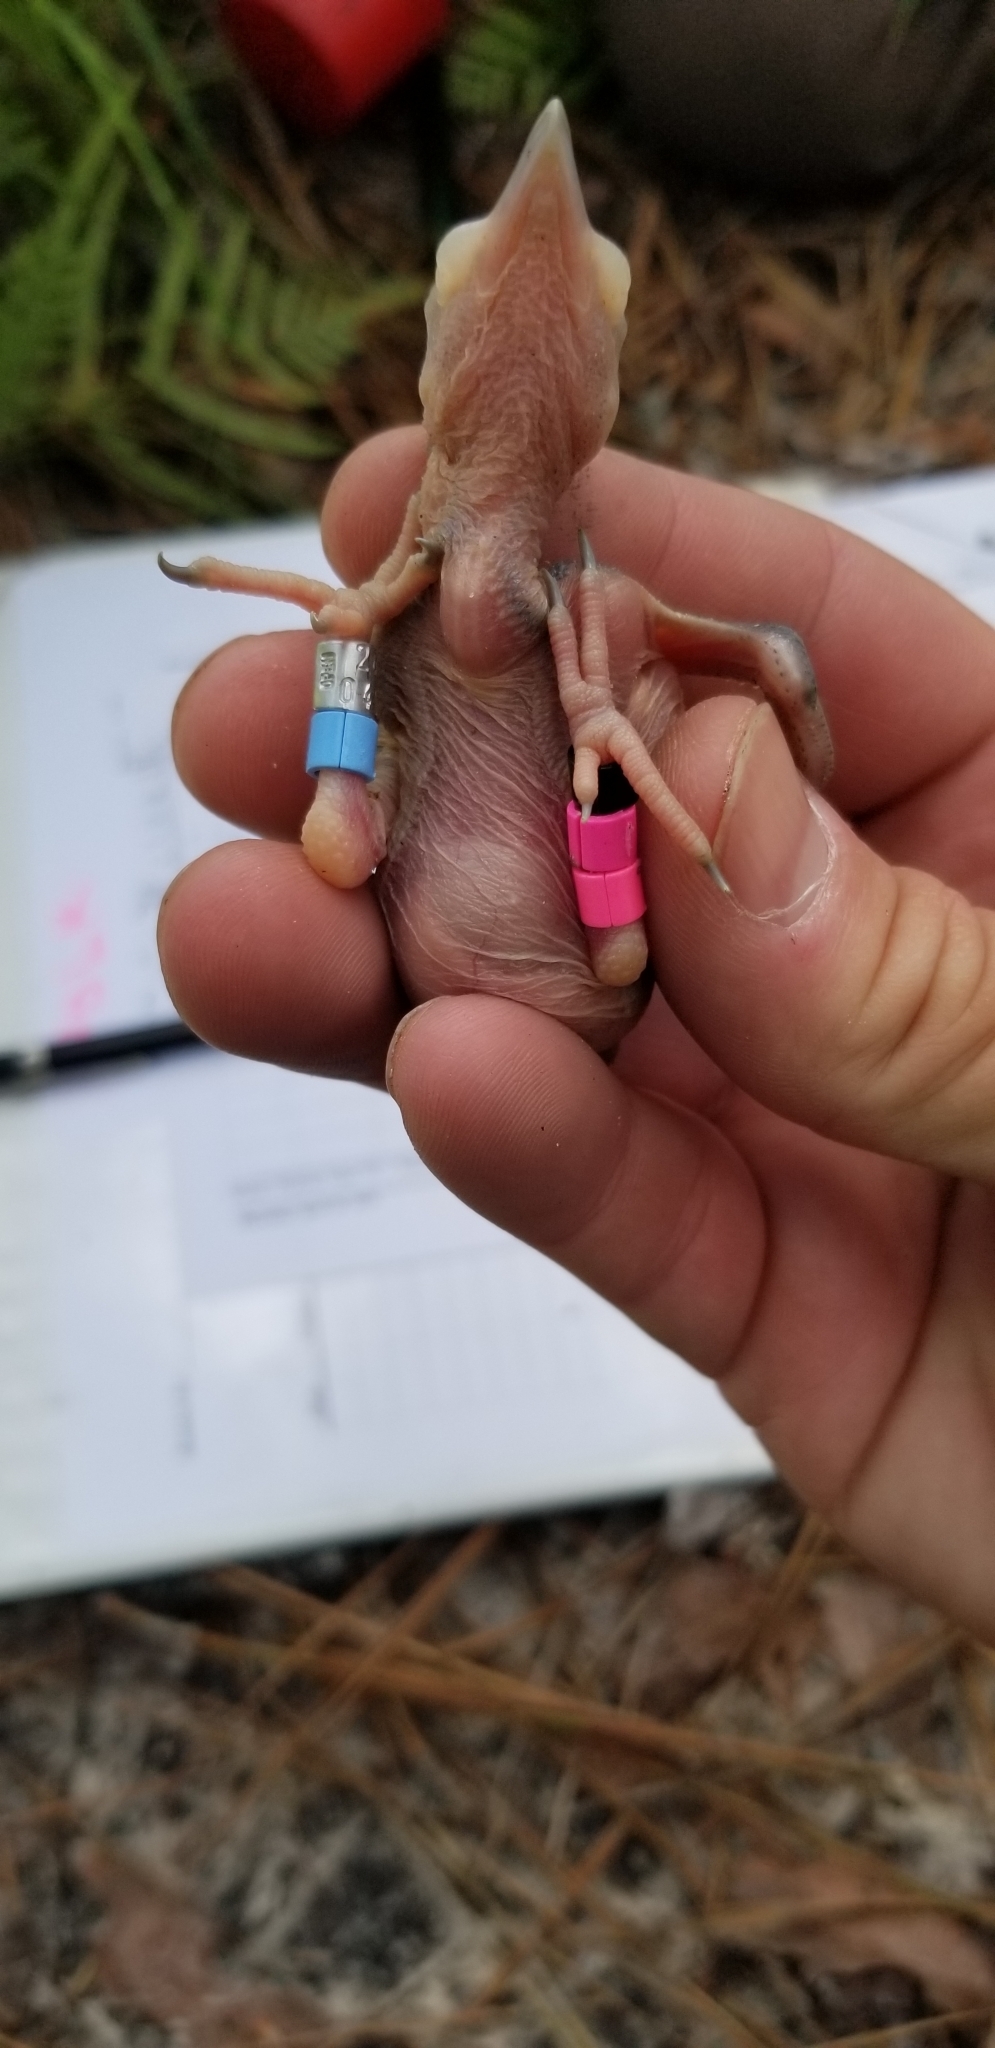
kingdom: Animalia
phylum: Chordata
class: Aves
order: Piciformes
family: Picidae
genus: Leuconotopicus
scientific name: Leuconotopicus borealis
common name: Red-cockaded woodpecker
